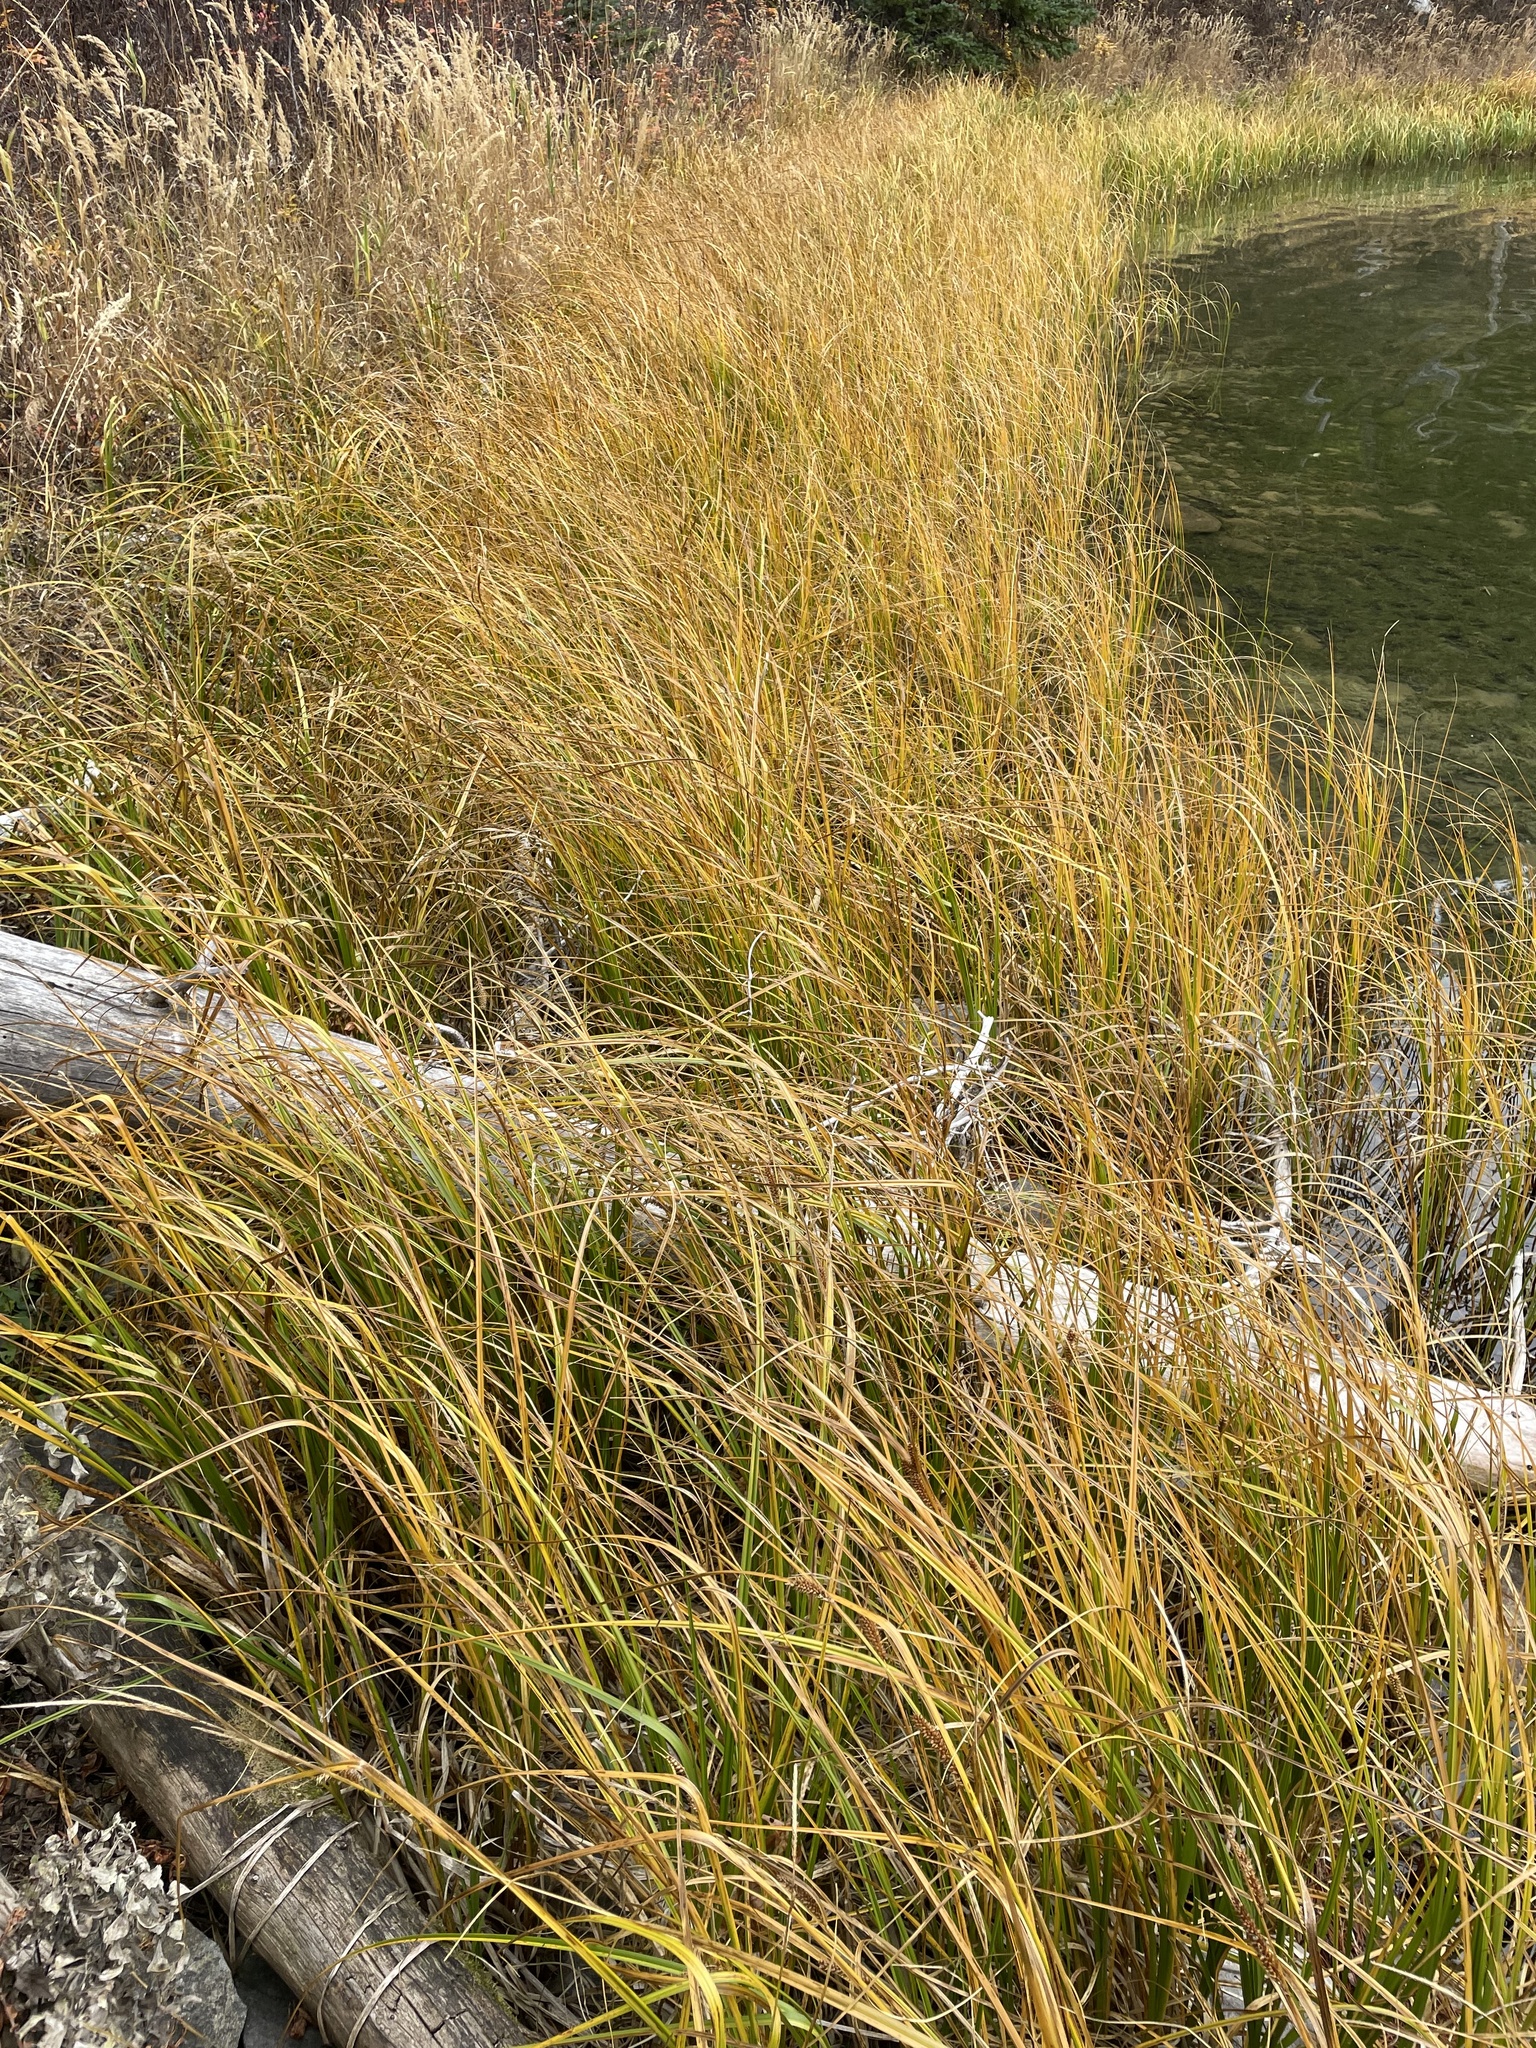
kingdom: Plantae
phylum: Tracheophyta
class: Liliopsida
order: Poales
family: Cyperaceae
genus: Carex
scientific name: Carex utriculata
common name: Beaked sedge
